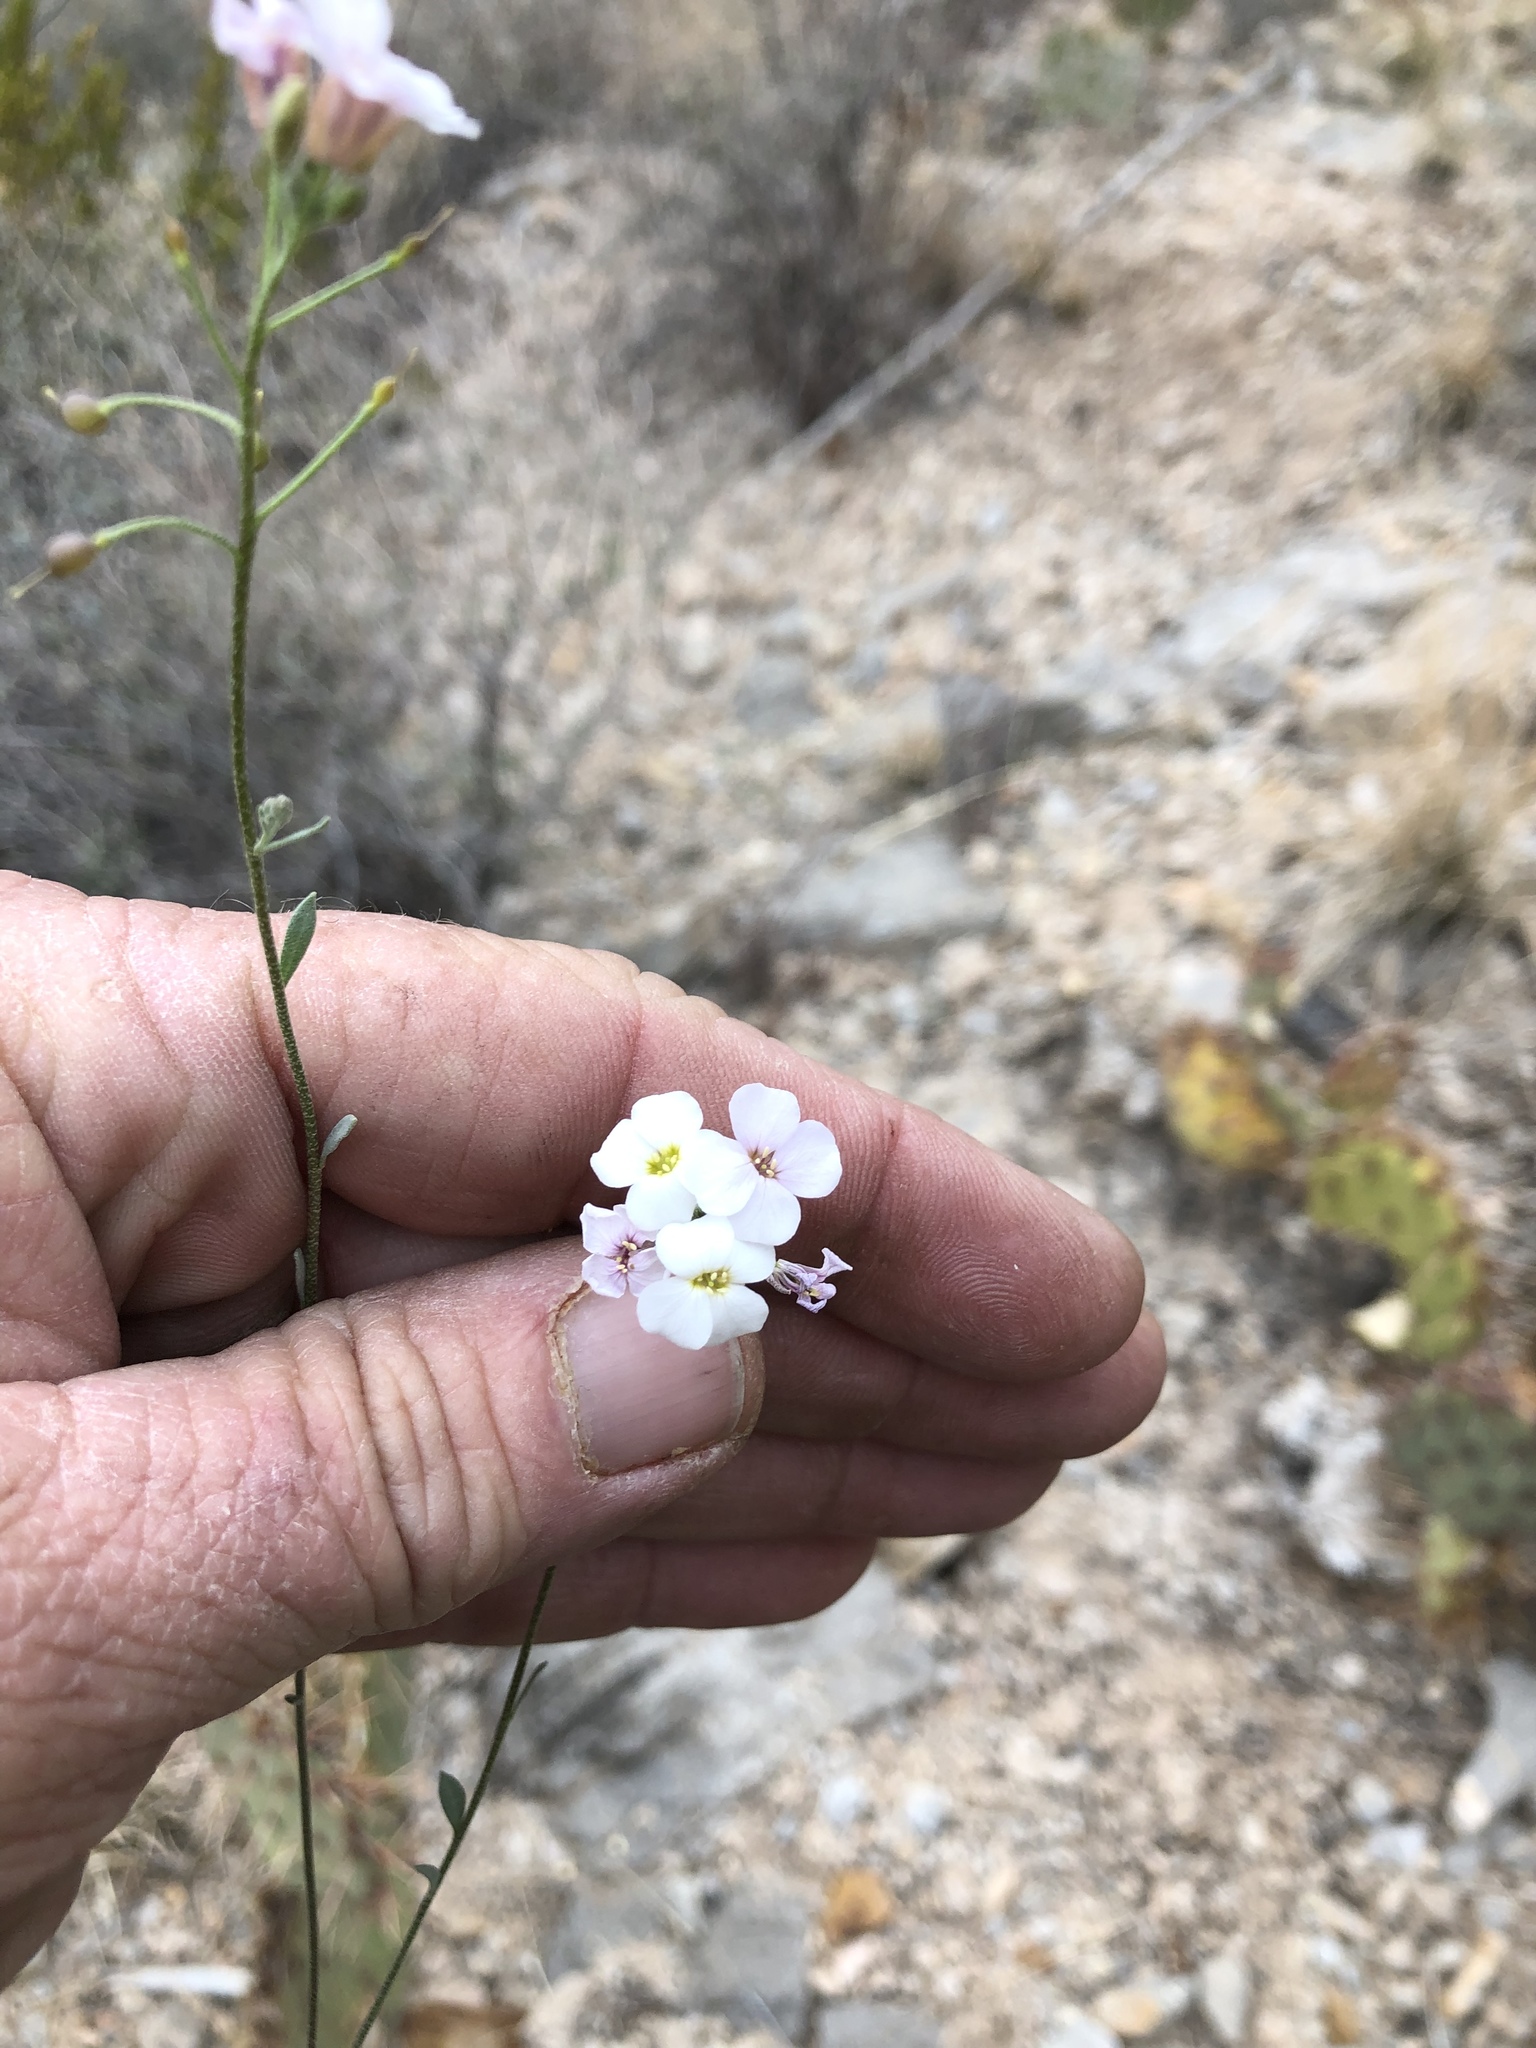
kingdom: Plantae
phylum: Tracheophyta
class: Magnoliopsida
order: Brassicales
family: Brassicaceae
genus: Physaria
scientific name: Physaria purpurea
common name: Rose bladderpod
